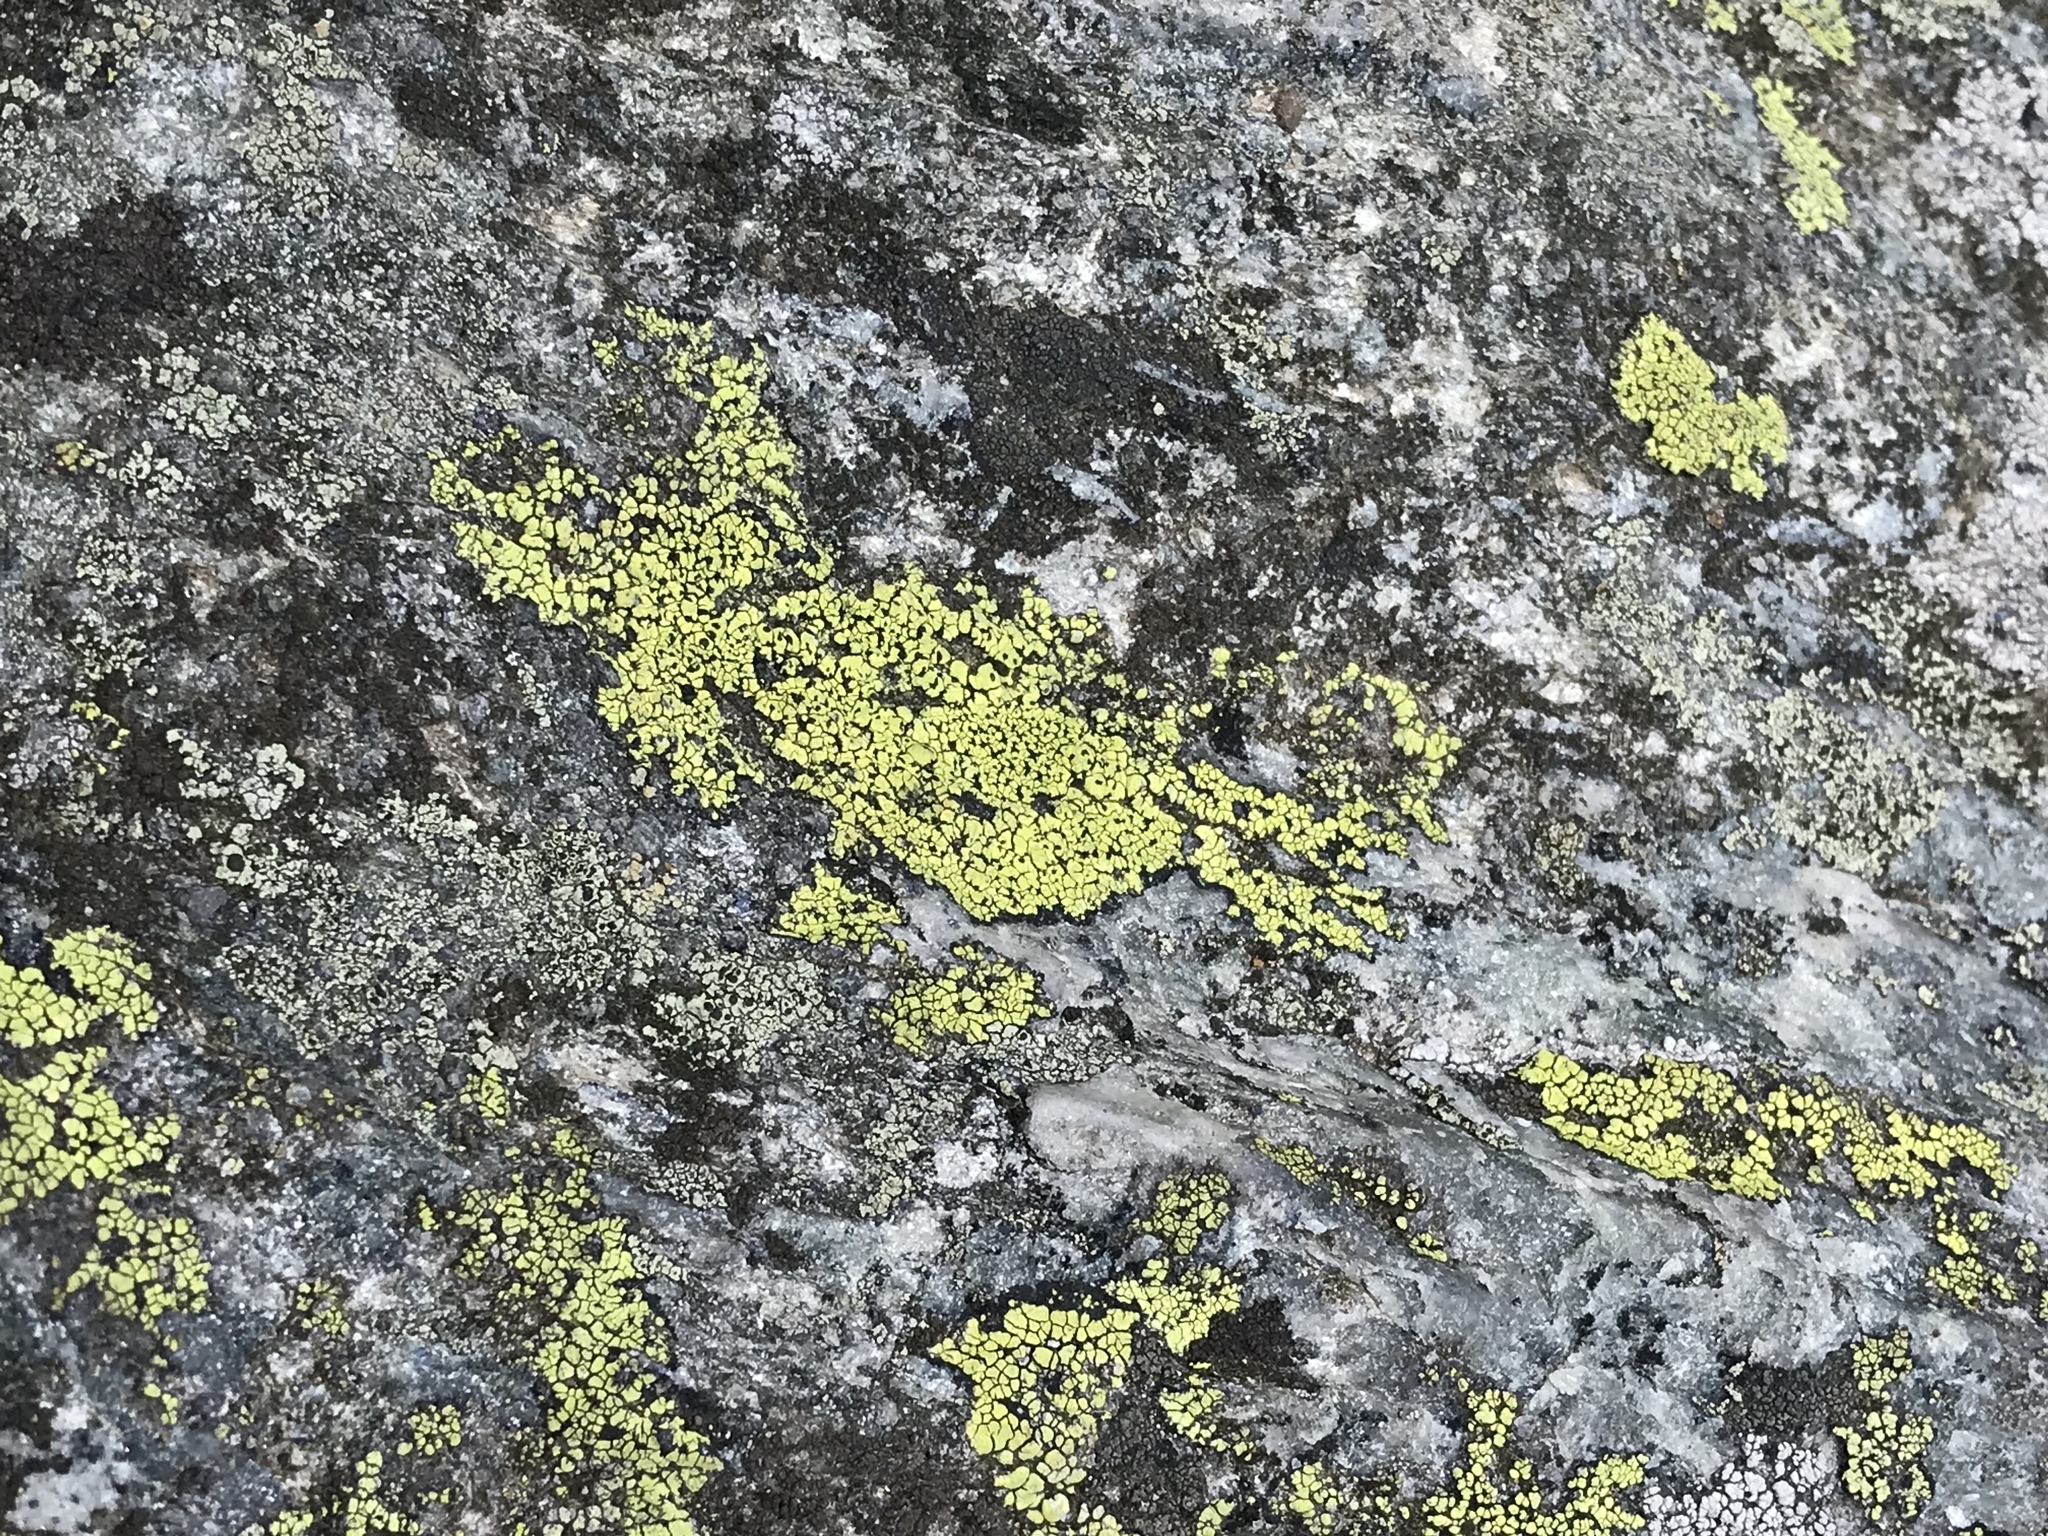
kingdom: Fungi
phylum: Ascomycota
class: Lecanoromycetes
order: Rhizocarpales
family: Rhizocarpaceae
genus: Rhizocarpon
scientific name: Rhizocarpon geographicum
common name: Yellow map lichen
